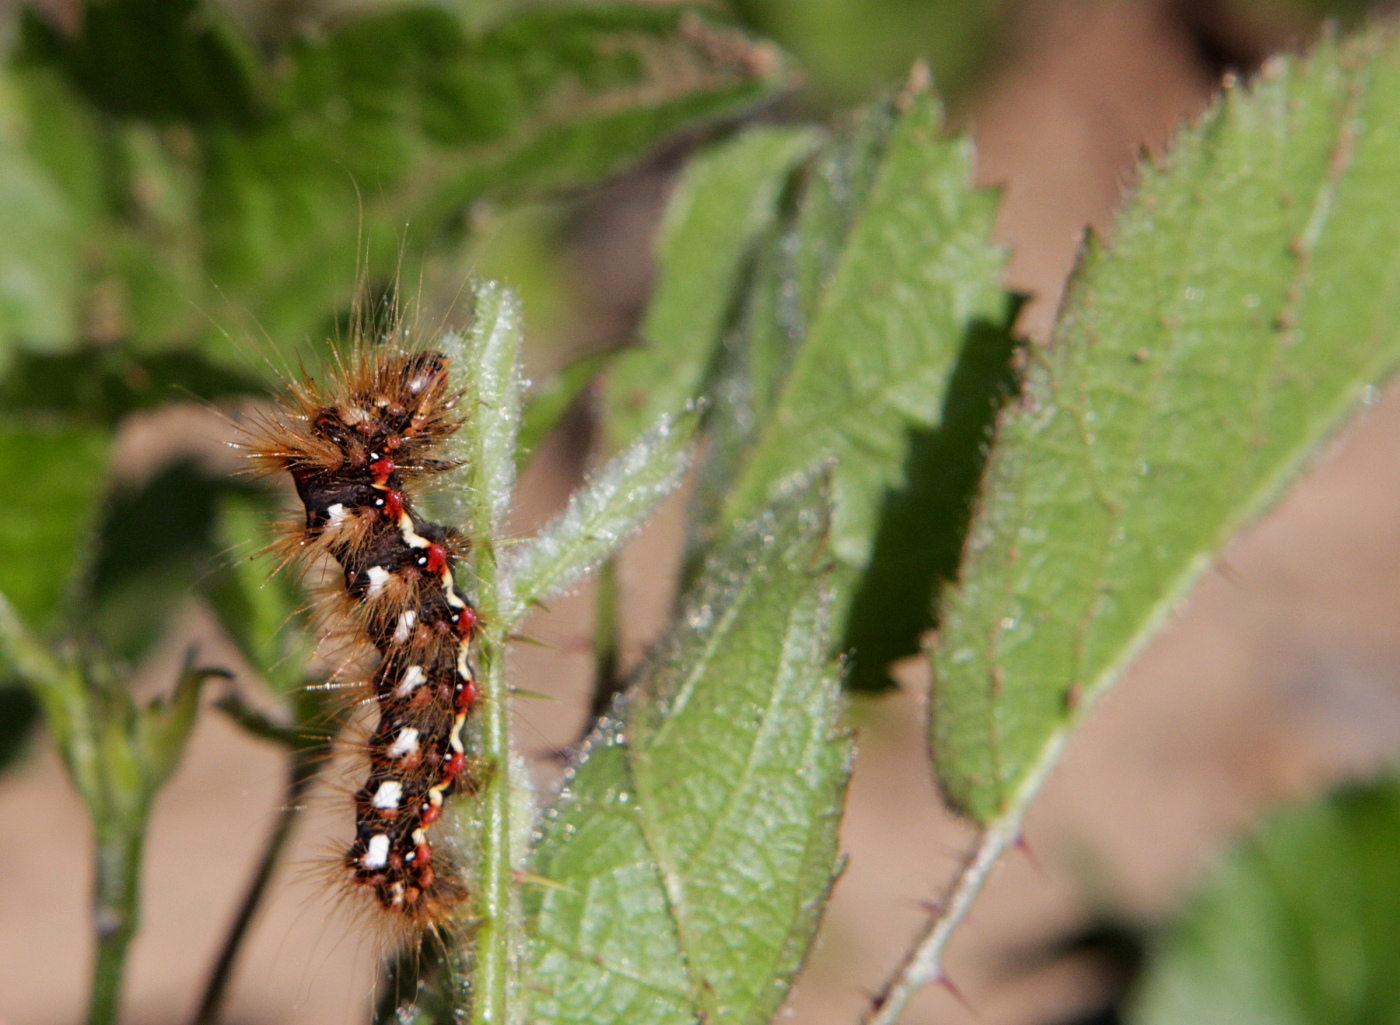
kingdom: Animalia
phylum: Arthropoda
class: Insecta
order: Lepidoptera
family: Noctuidae
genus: Acronicta
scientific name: Acronicta rumicis
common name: Knot grass
